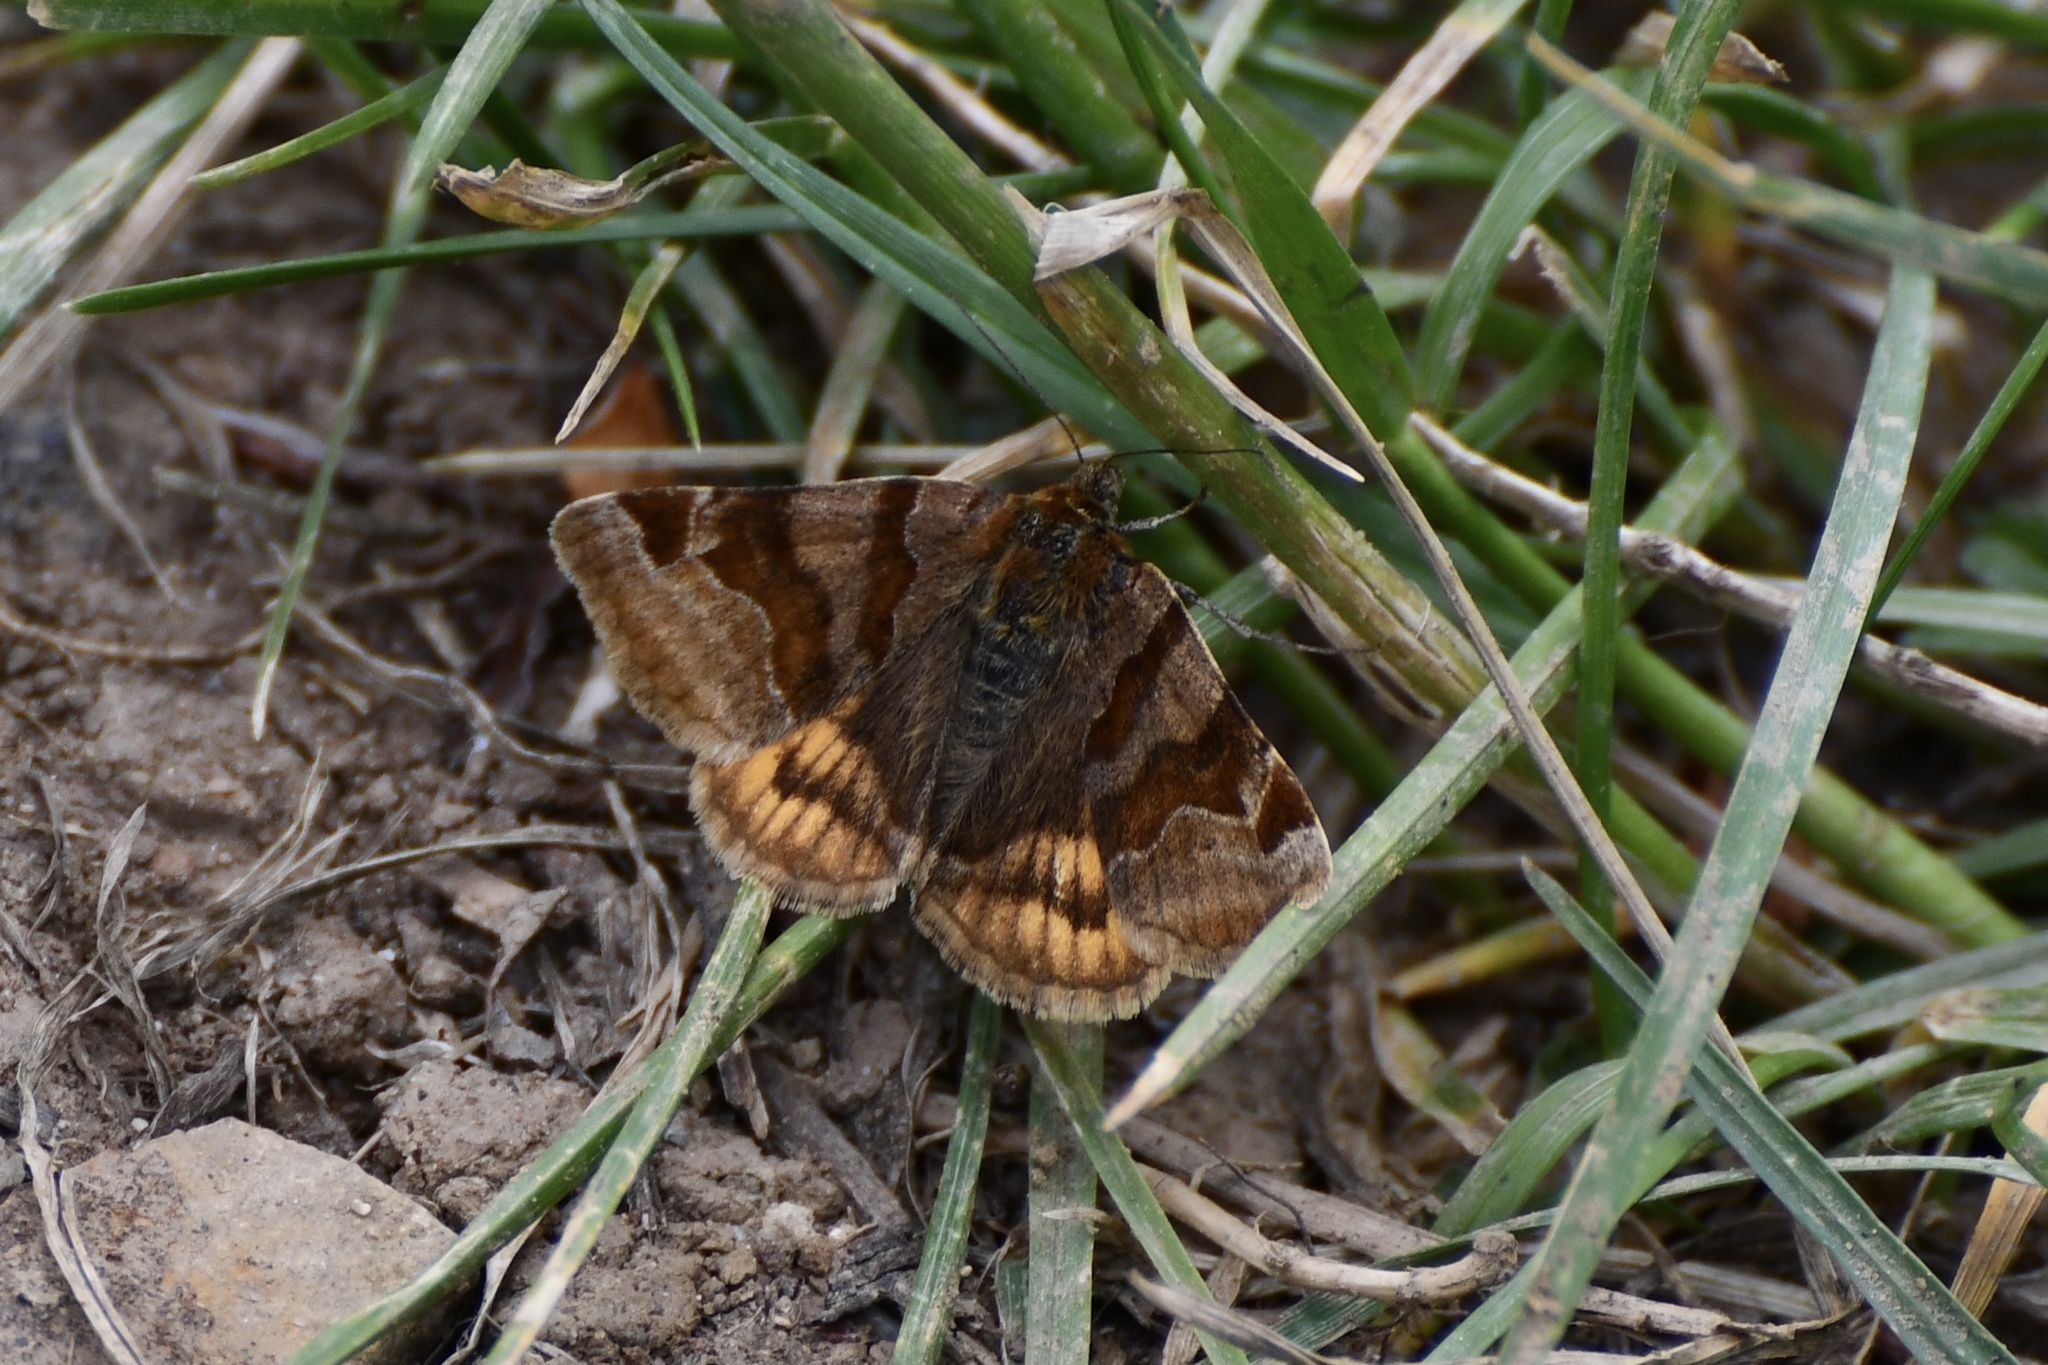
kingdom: Animalia
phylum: Arthropoda
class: Insecta
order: Lepidoptera
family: Erebidae
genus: Euclidia
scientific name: Euclidia glyphica
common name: Burnet companion
